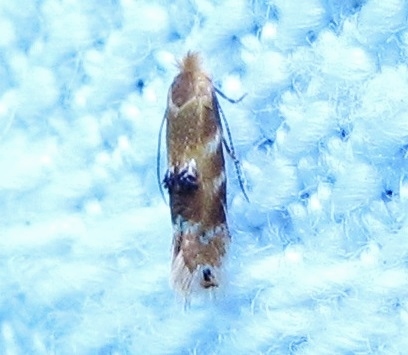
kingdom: Animalia
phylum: Arthropoda
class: Insecta
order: Lepidoptera
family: Bucculatricidae
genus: Bucculatrix
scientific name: Bucculatrix coronatella
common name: Crowned bucculatrix moth
